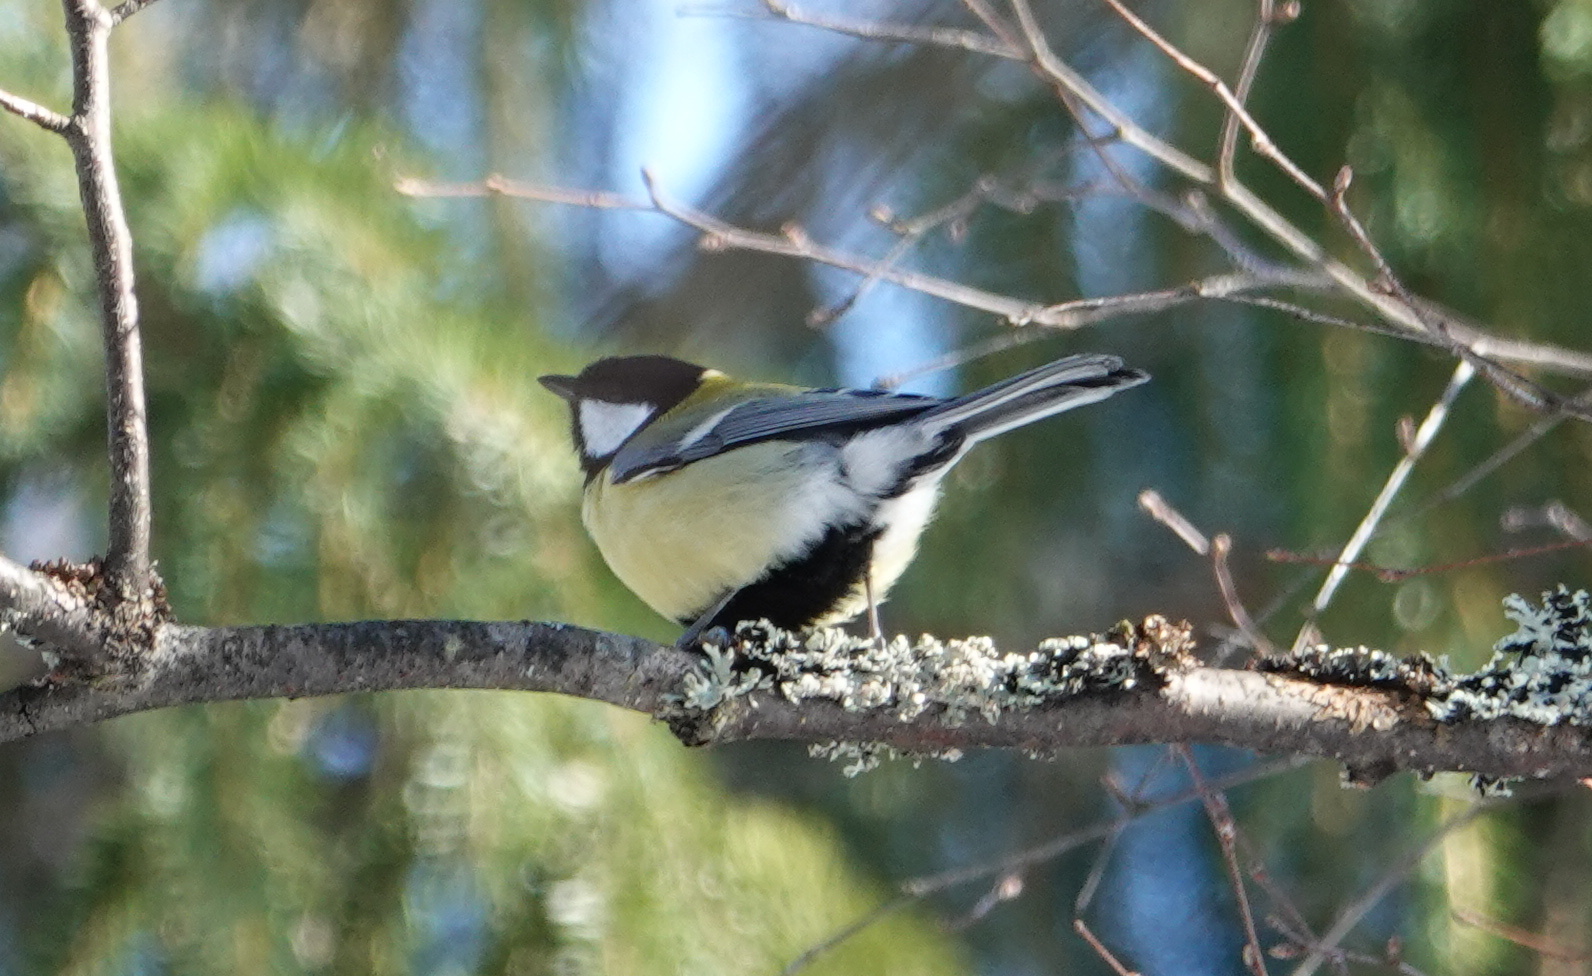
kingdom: Animalia
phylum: Chordata
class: Aves
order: Passeriformes
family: Paridae
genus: Parus
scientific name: Parus major
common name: Great tit
